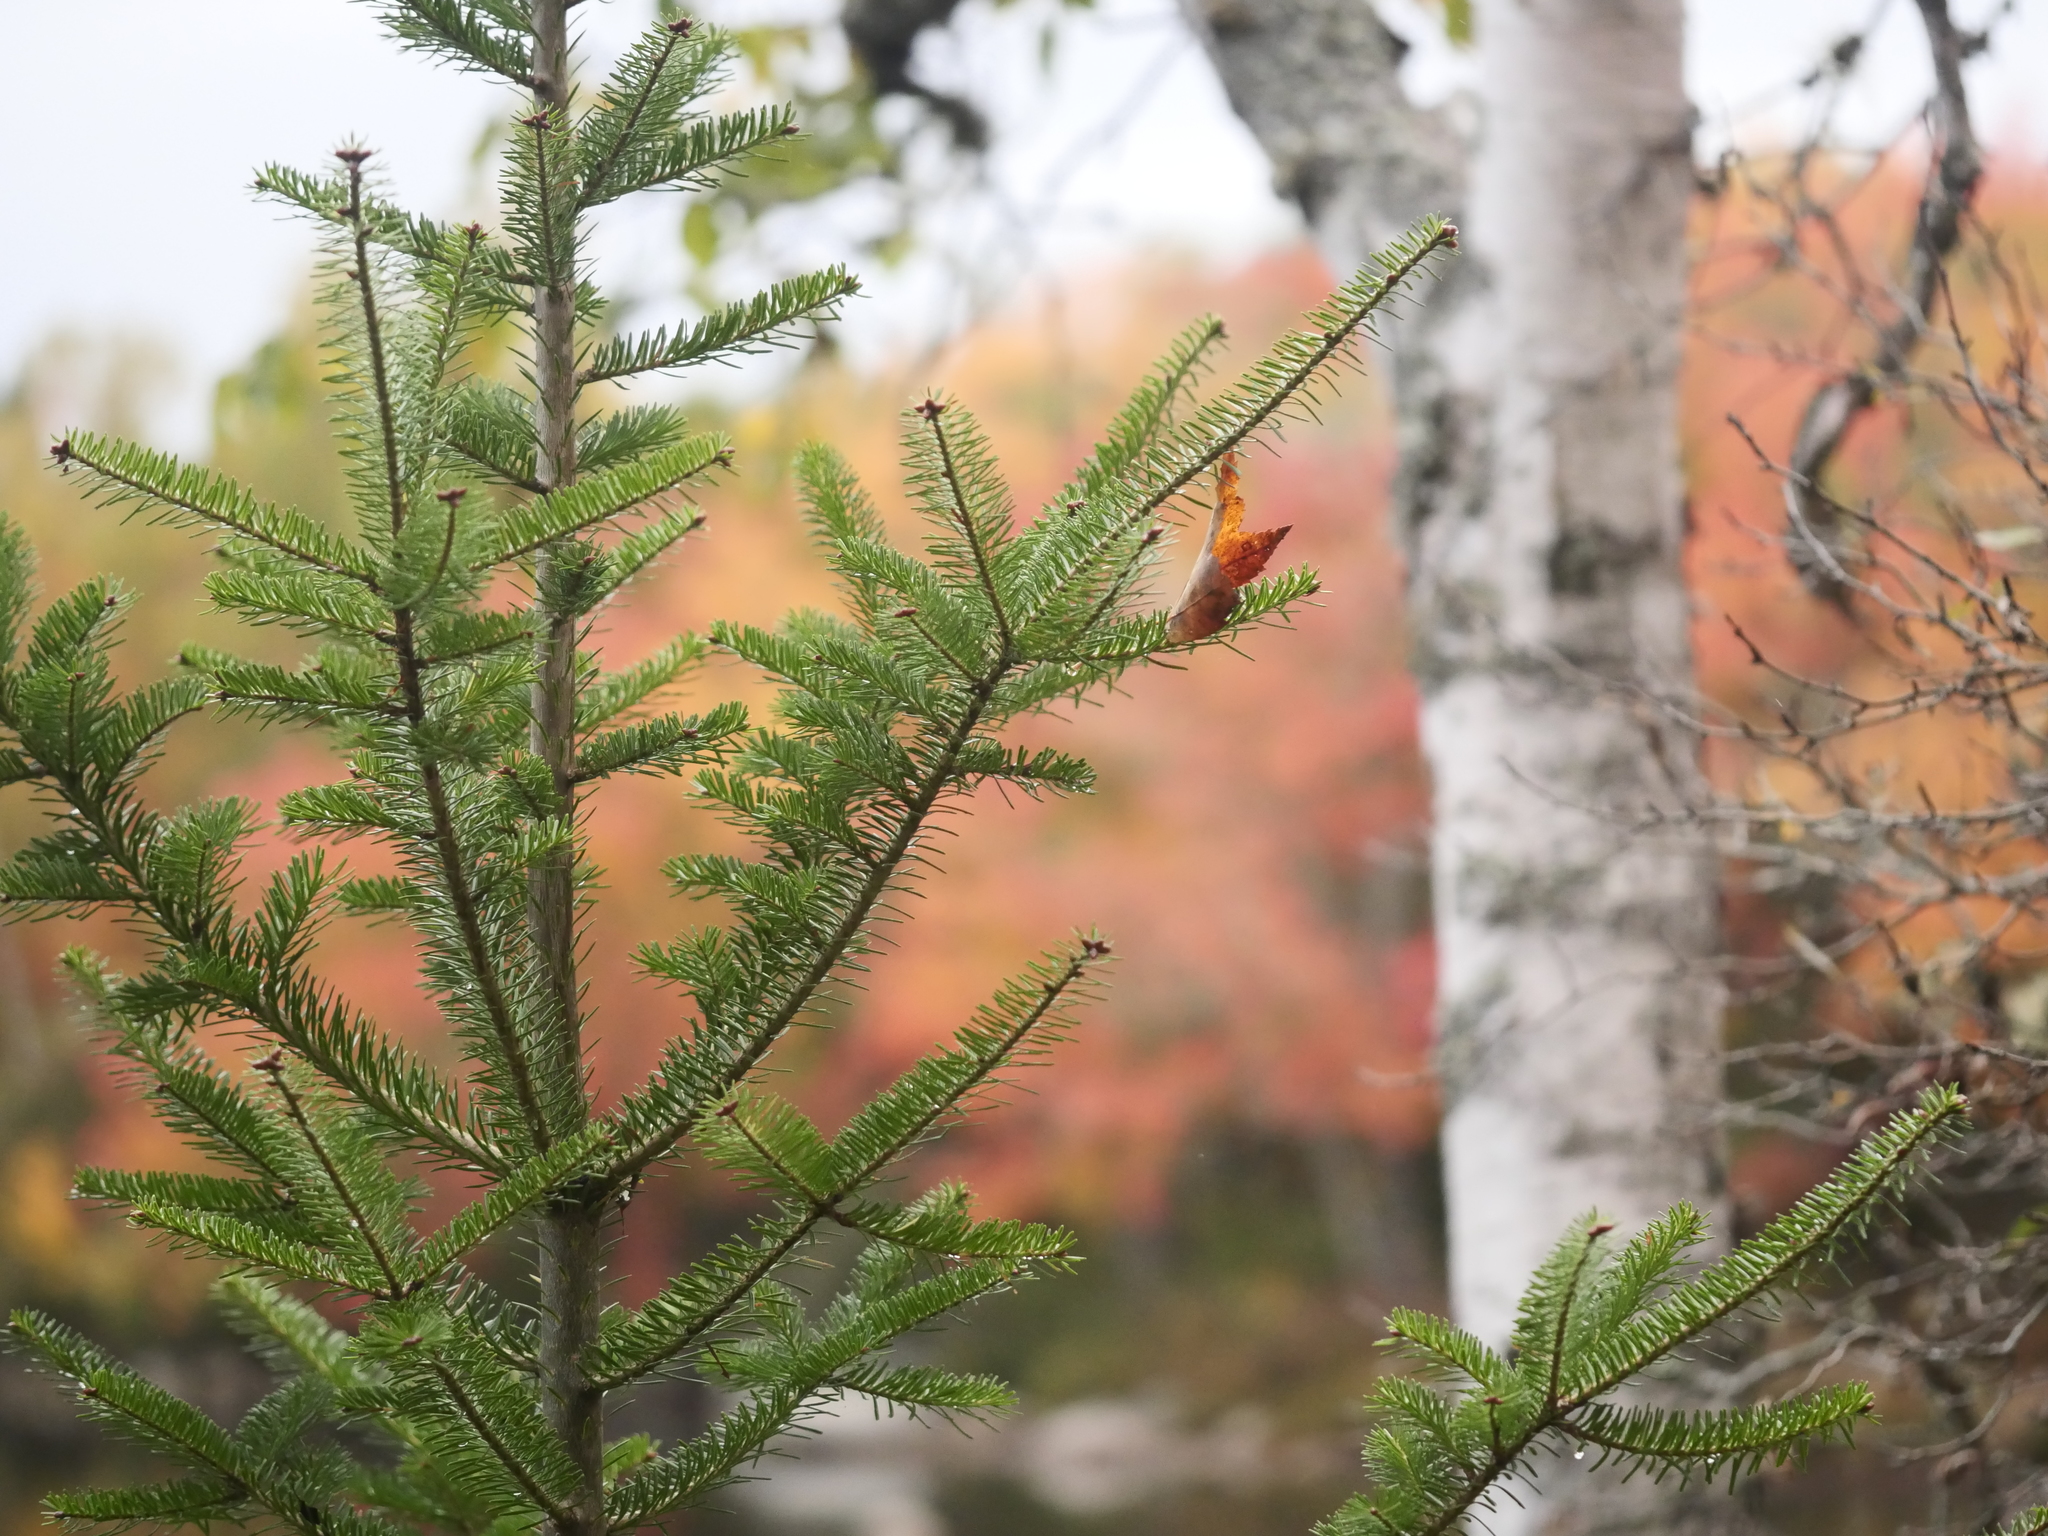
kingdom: Plantae
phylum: Tracheophyta
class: Pinopsida
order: Pinales
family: Pinaceae
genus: Abies
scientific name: Abies balsamea
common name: Balsam fir
